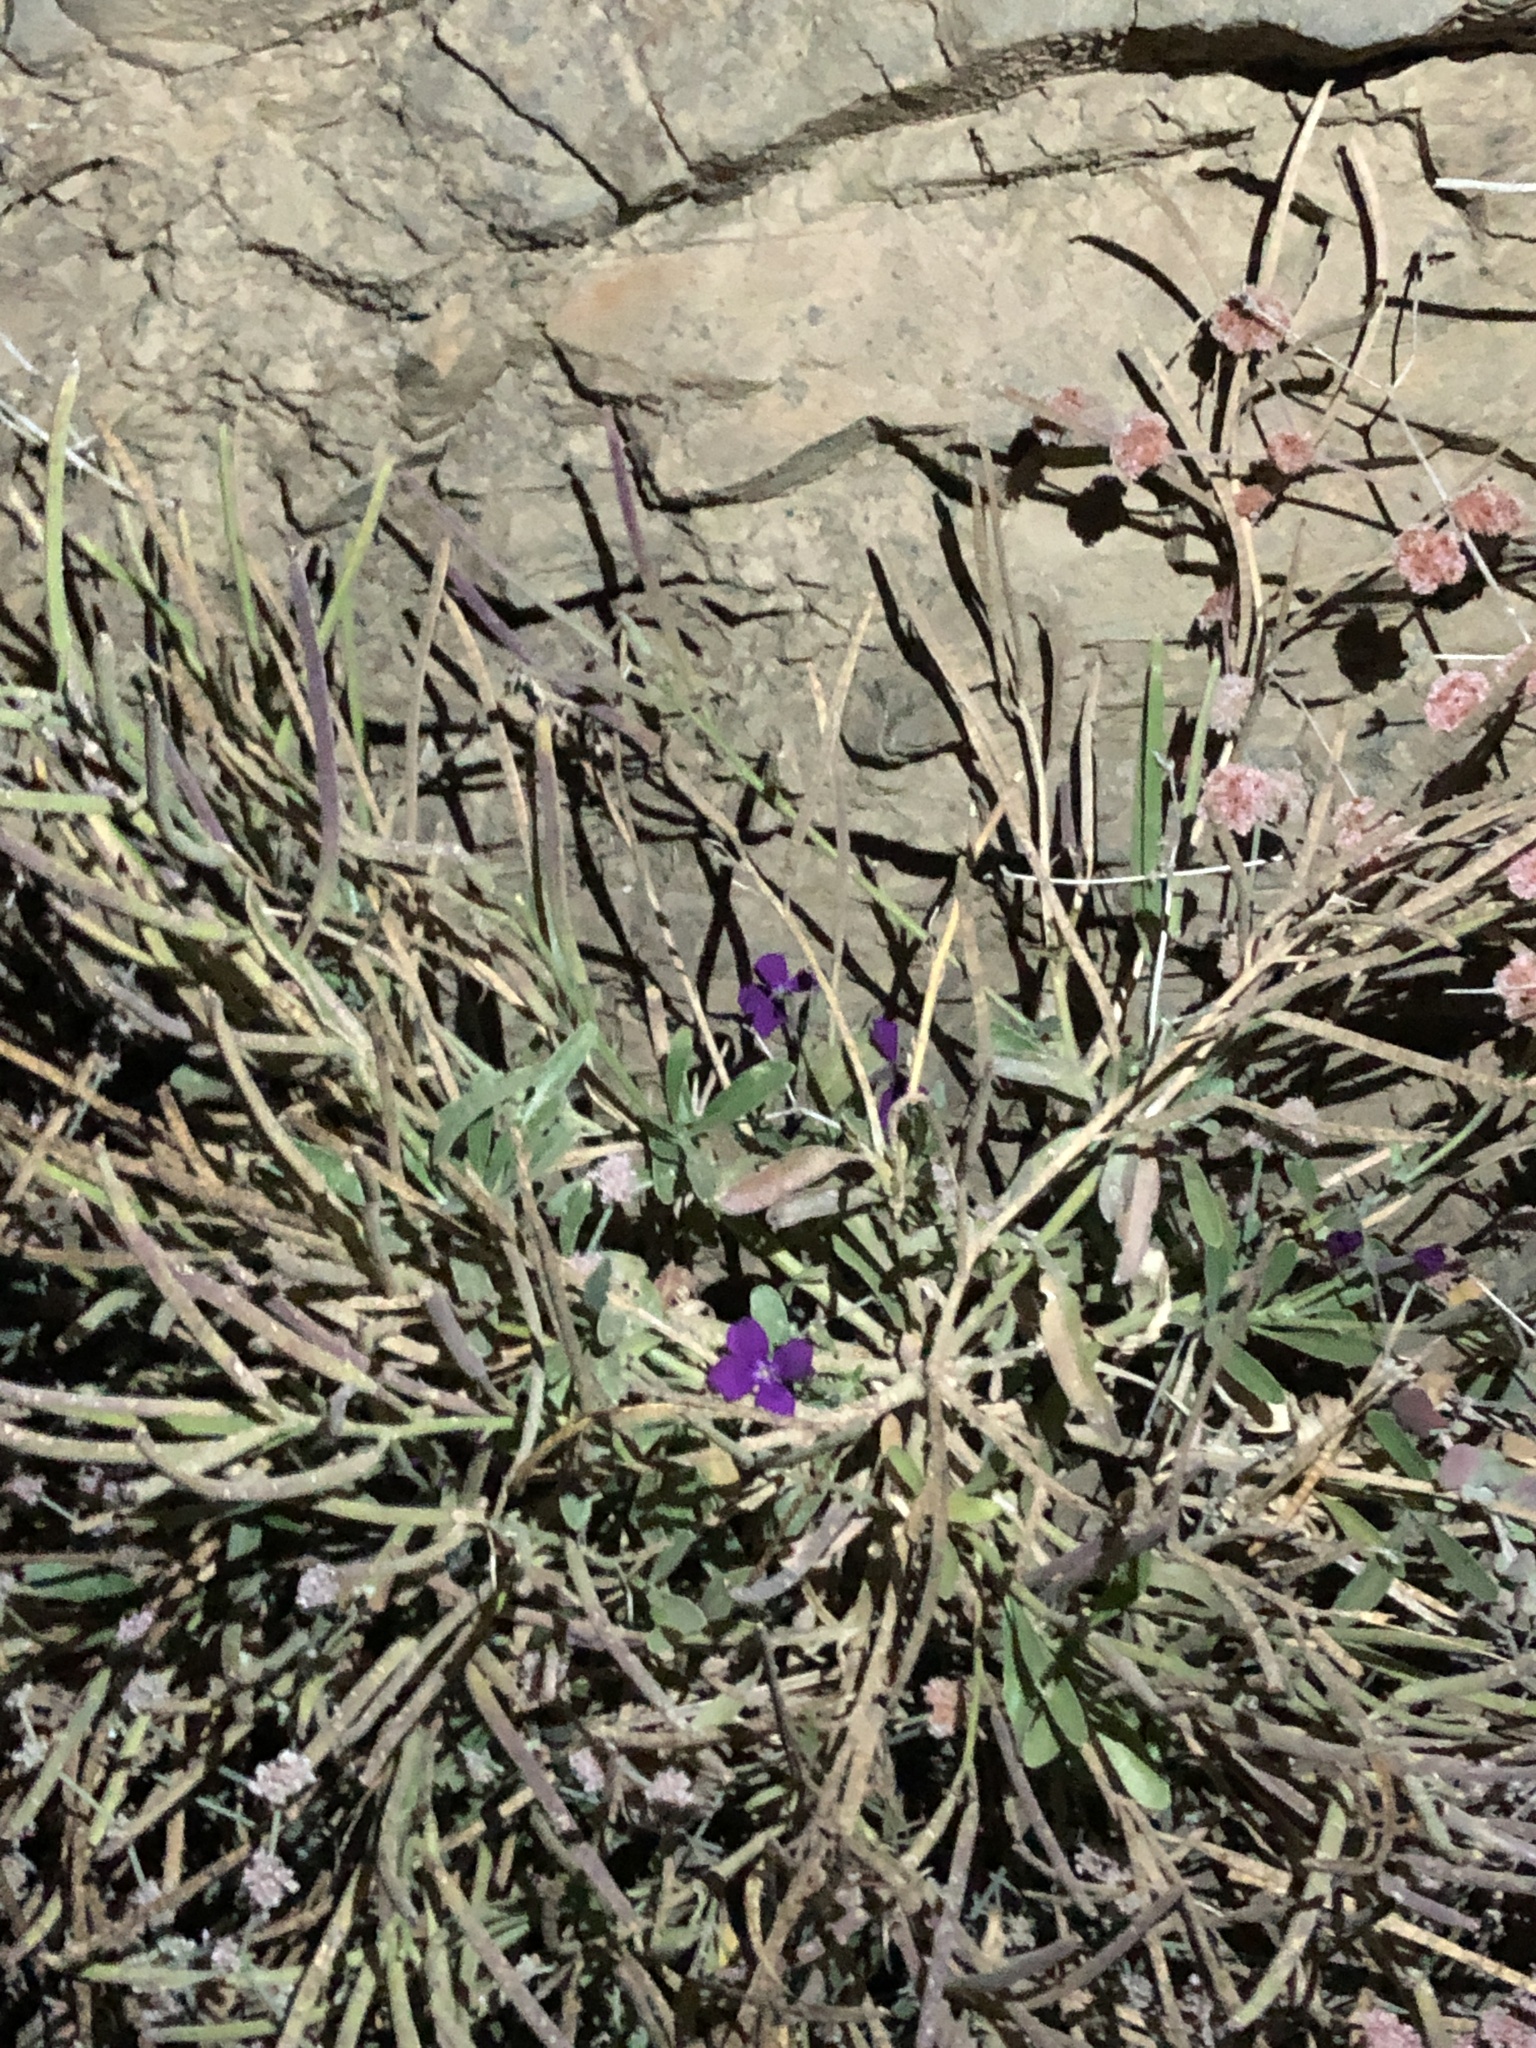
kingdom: Plantae
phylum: Tracheophyta
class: Magnoliopsida
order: Brassicales
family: Brassicaceae
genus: Matthiola
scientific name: Matthiola incana
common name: Hoary stock
